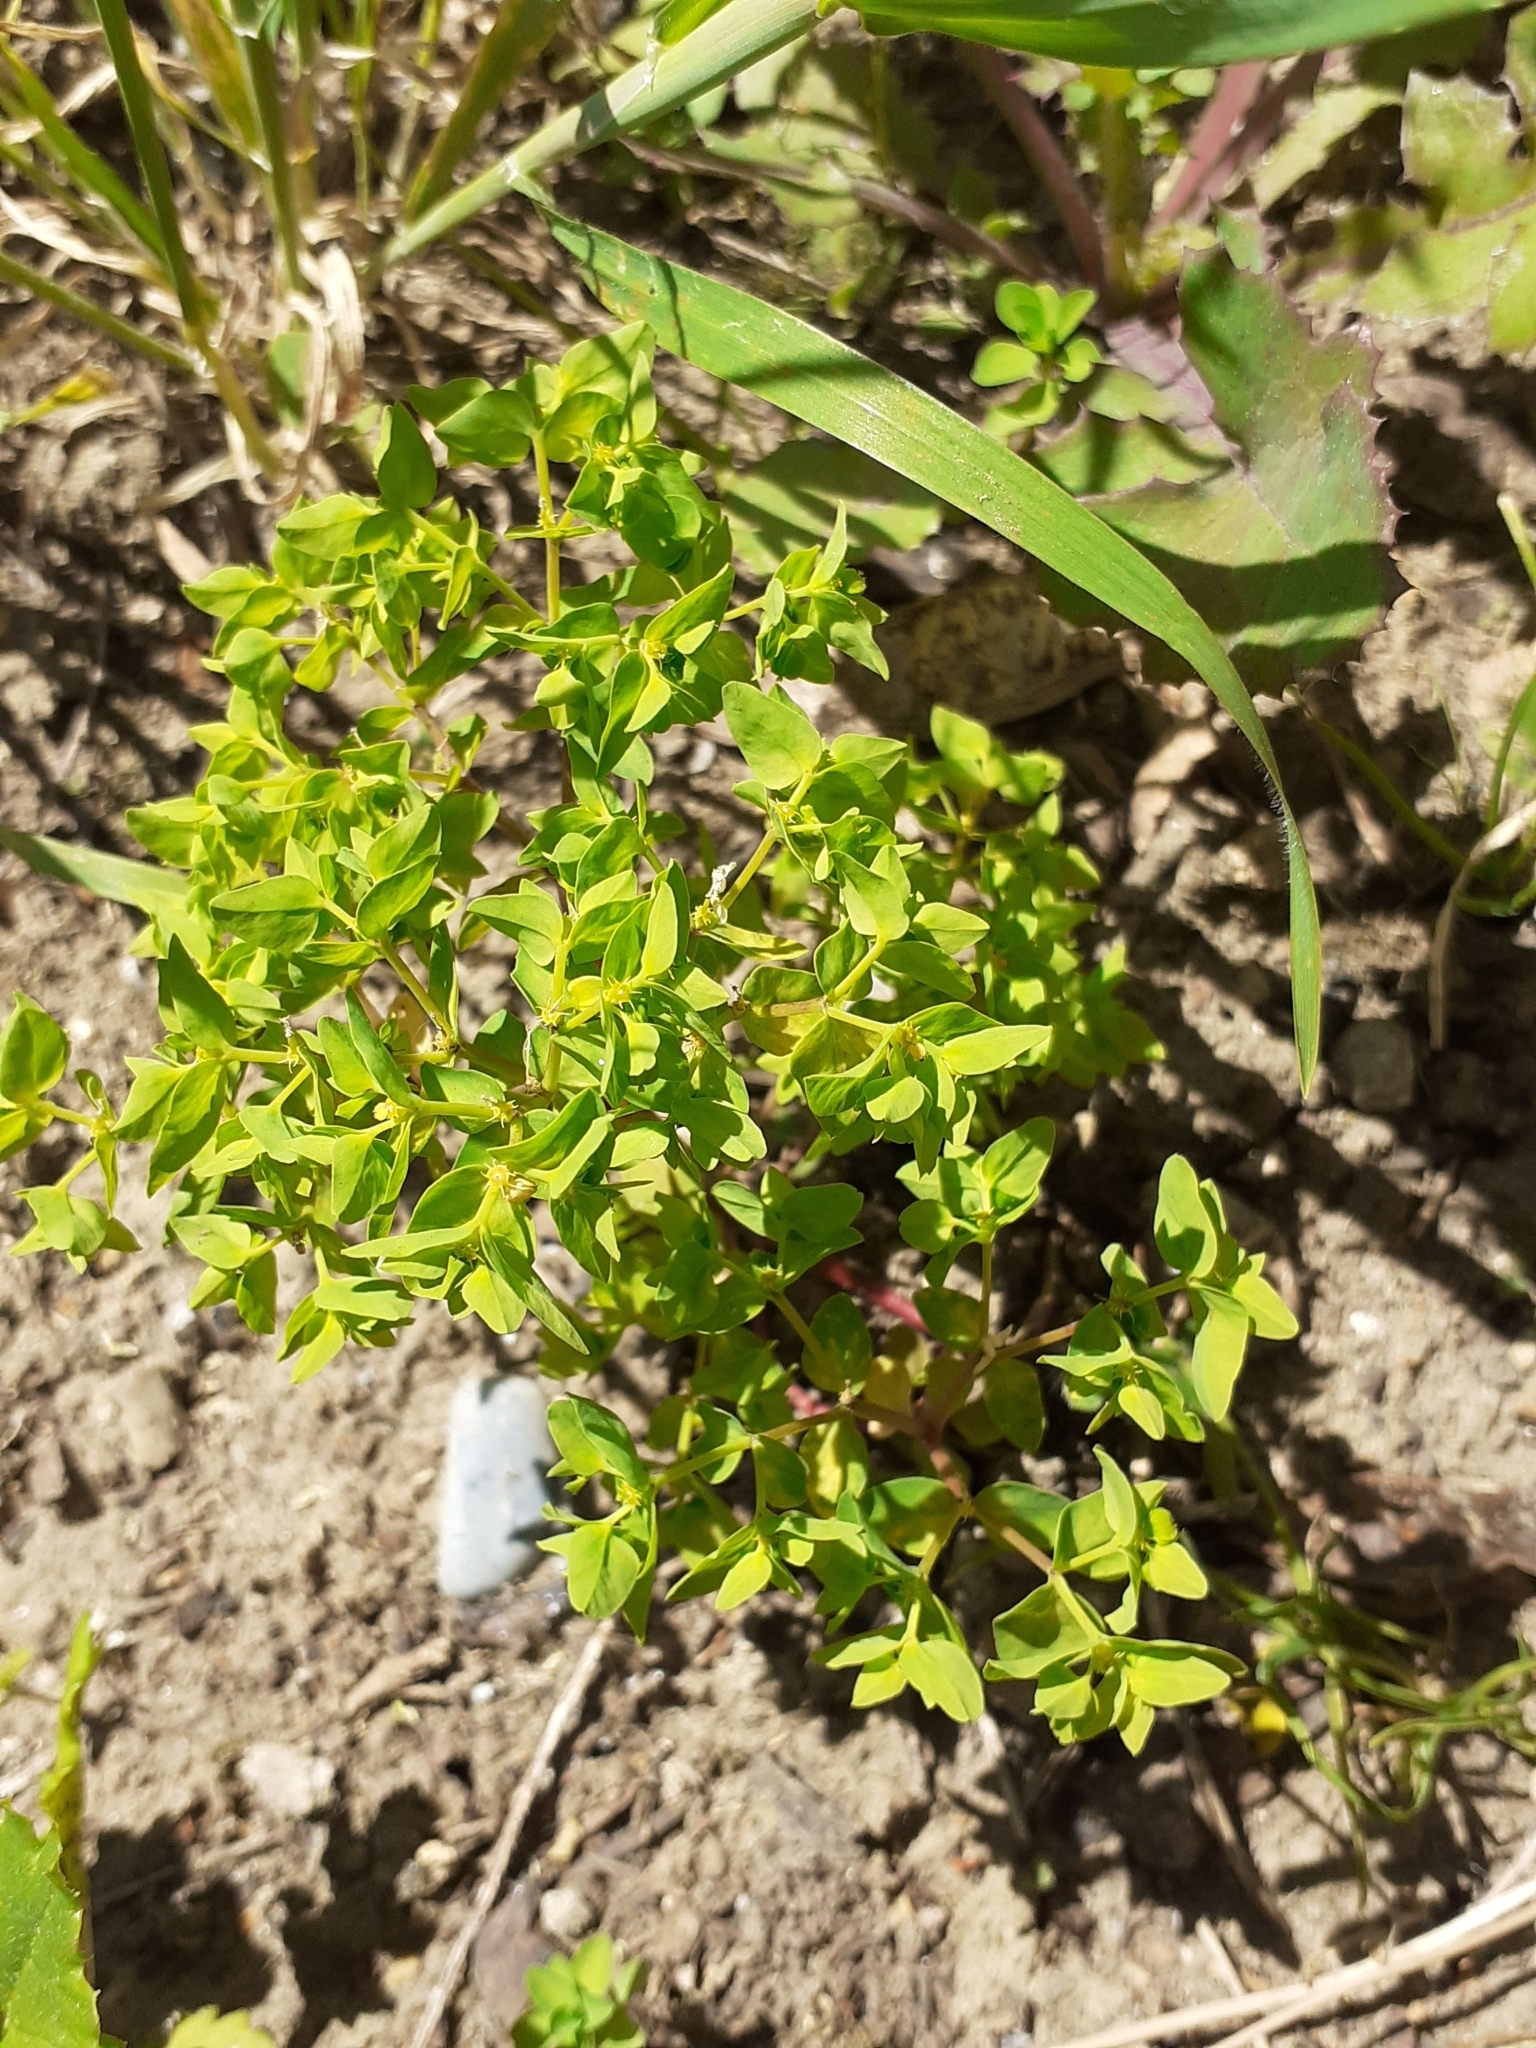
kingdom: Plantae
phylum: Tracheophyta
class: Magnoliopsida
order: Malpighiales
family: Euphorbiaceae
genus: Euphorbia
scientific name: Euphorbia peplus
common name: Petty spurge
